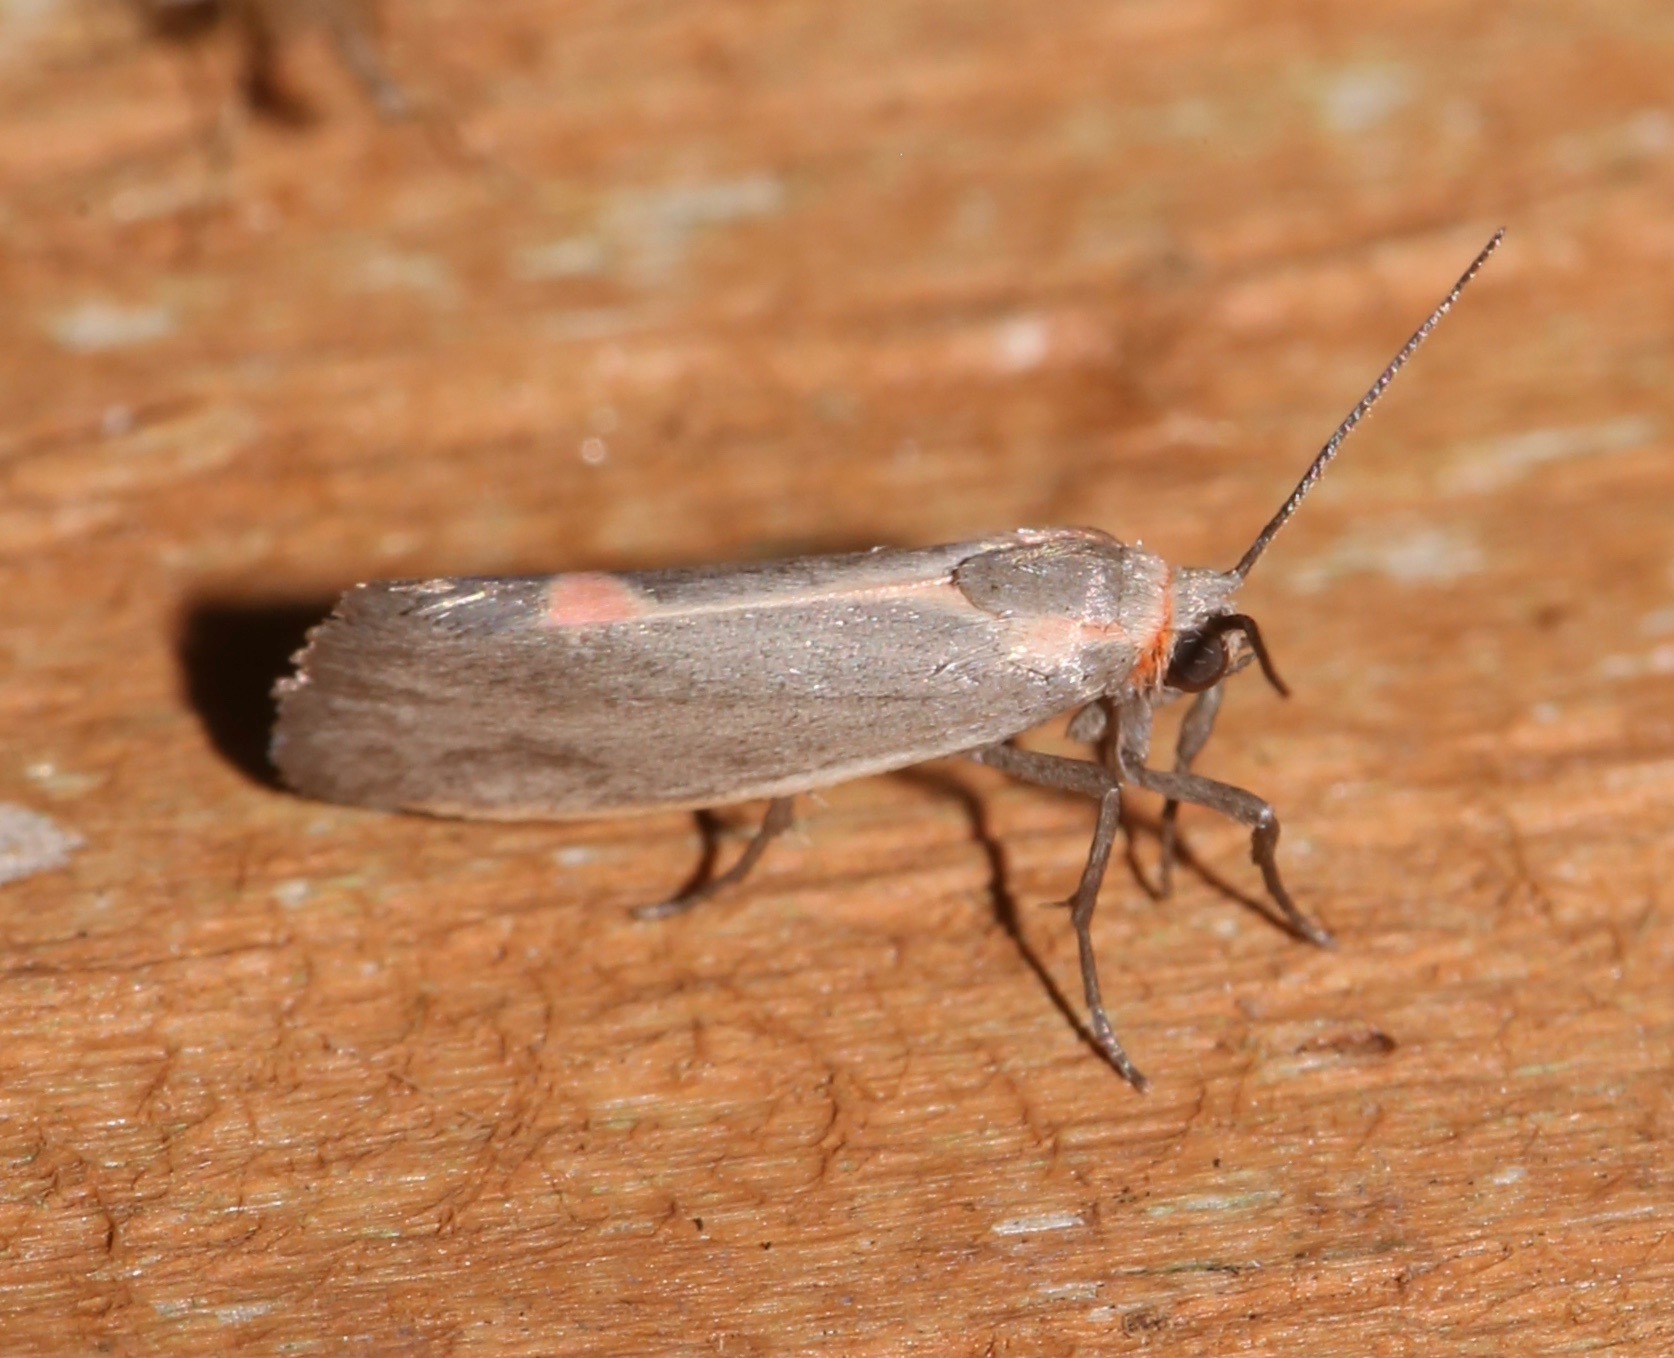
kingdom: Animalia
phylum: Arthropoda
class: Insecta
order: Lepidoptera
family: Erebidae
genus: Cisthene
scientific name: Cisthene striata
